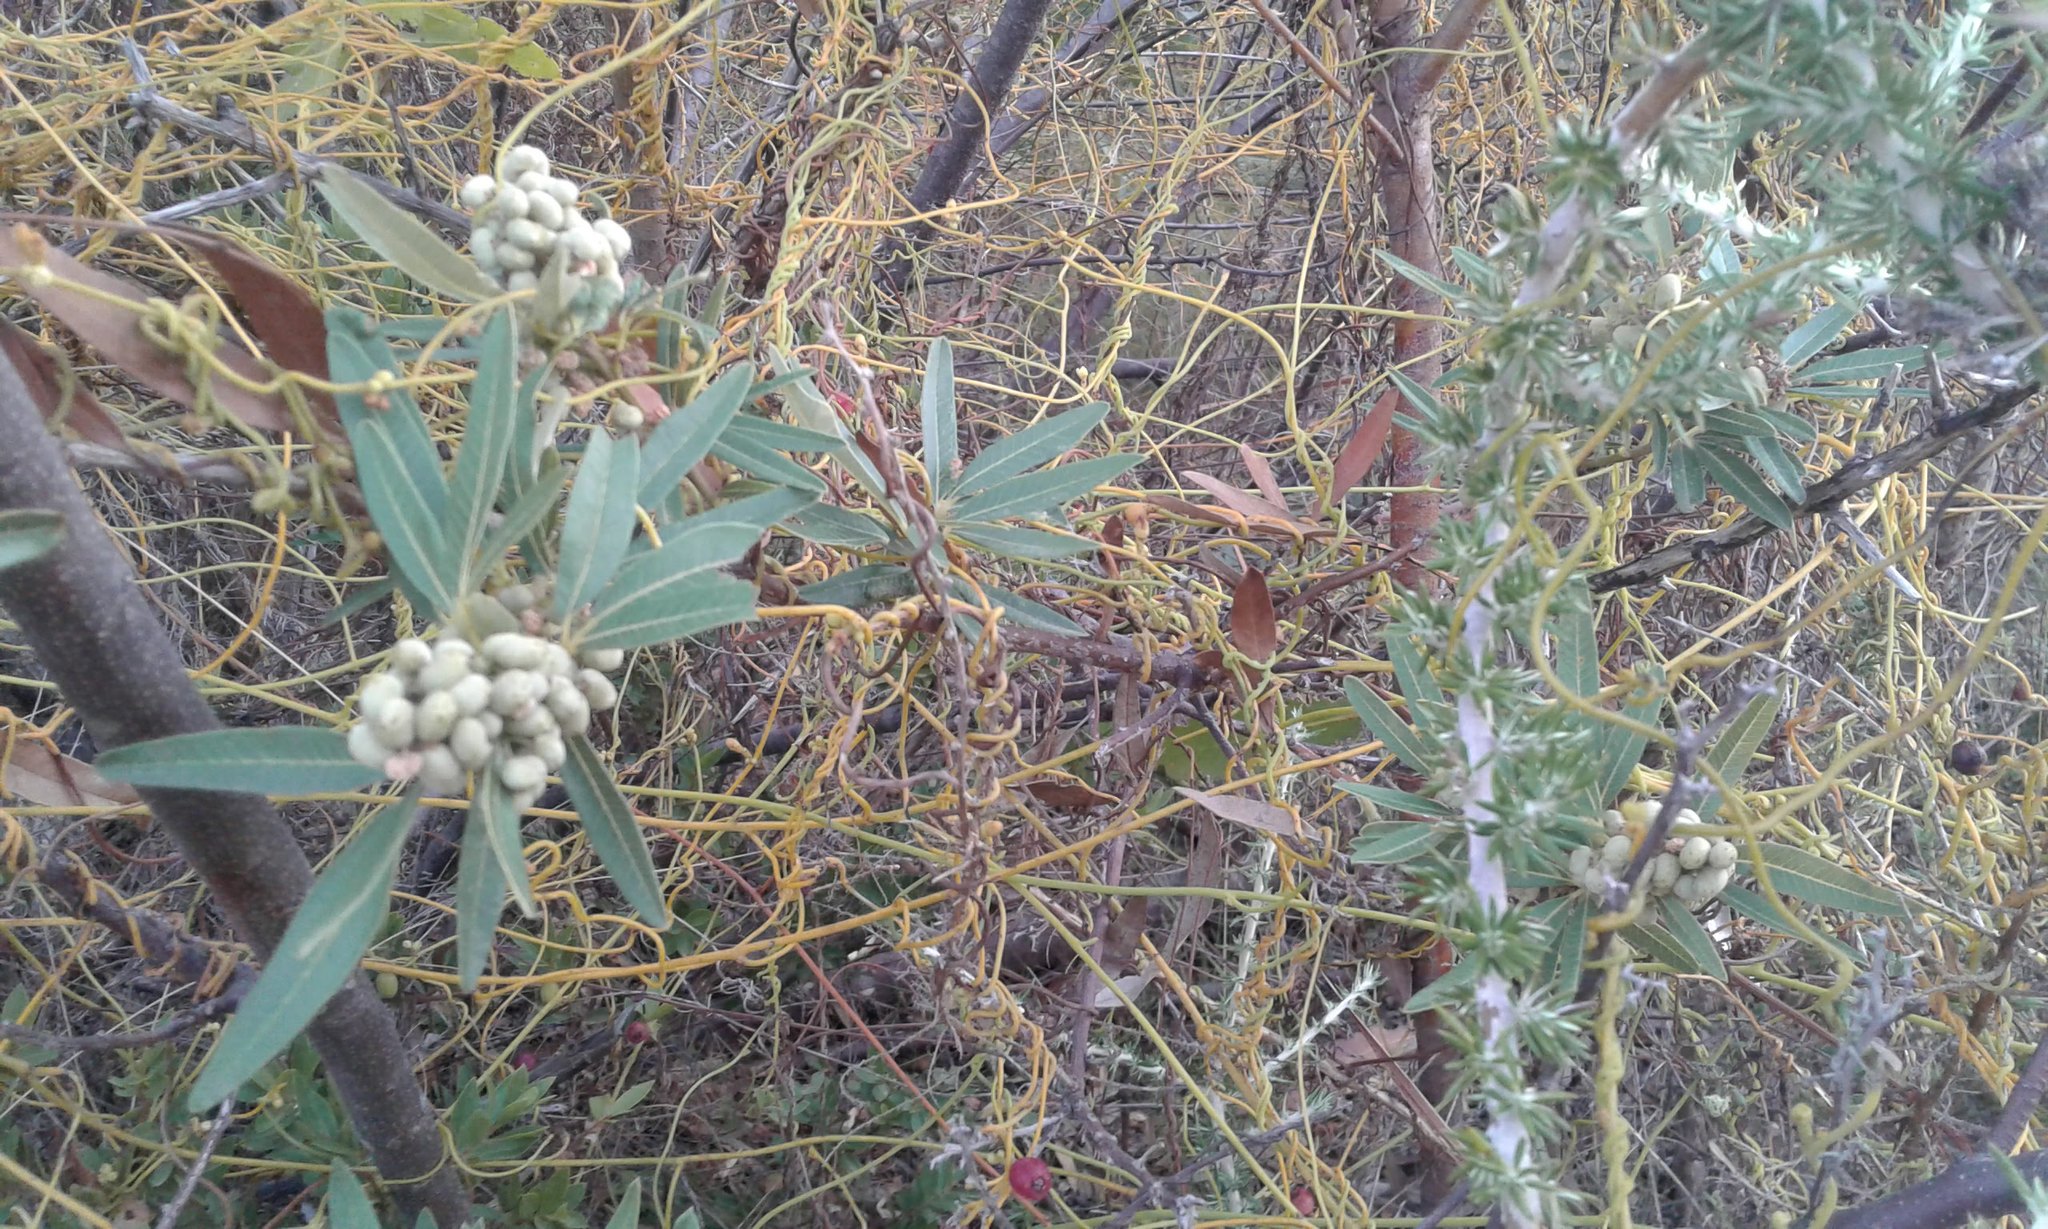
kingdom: Plantae
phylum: Tracheophyta
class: Magnoliopsida
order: Sapindales
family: Anacardiaceae
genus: Searsia
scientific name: Searsia angustifolia
